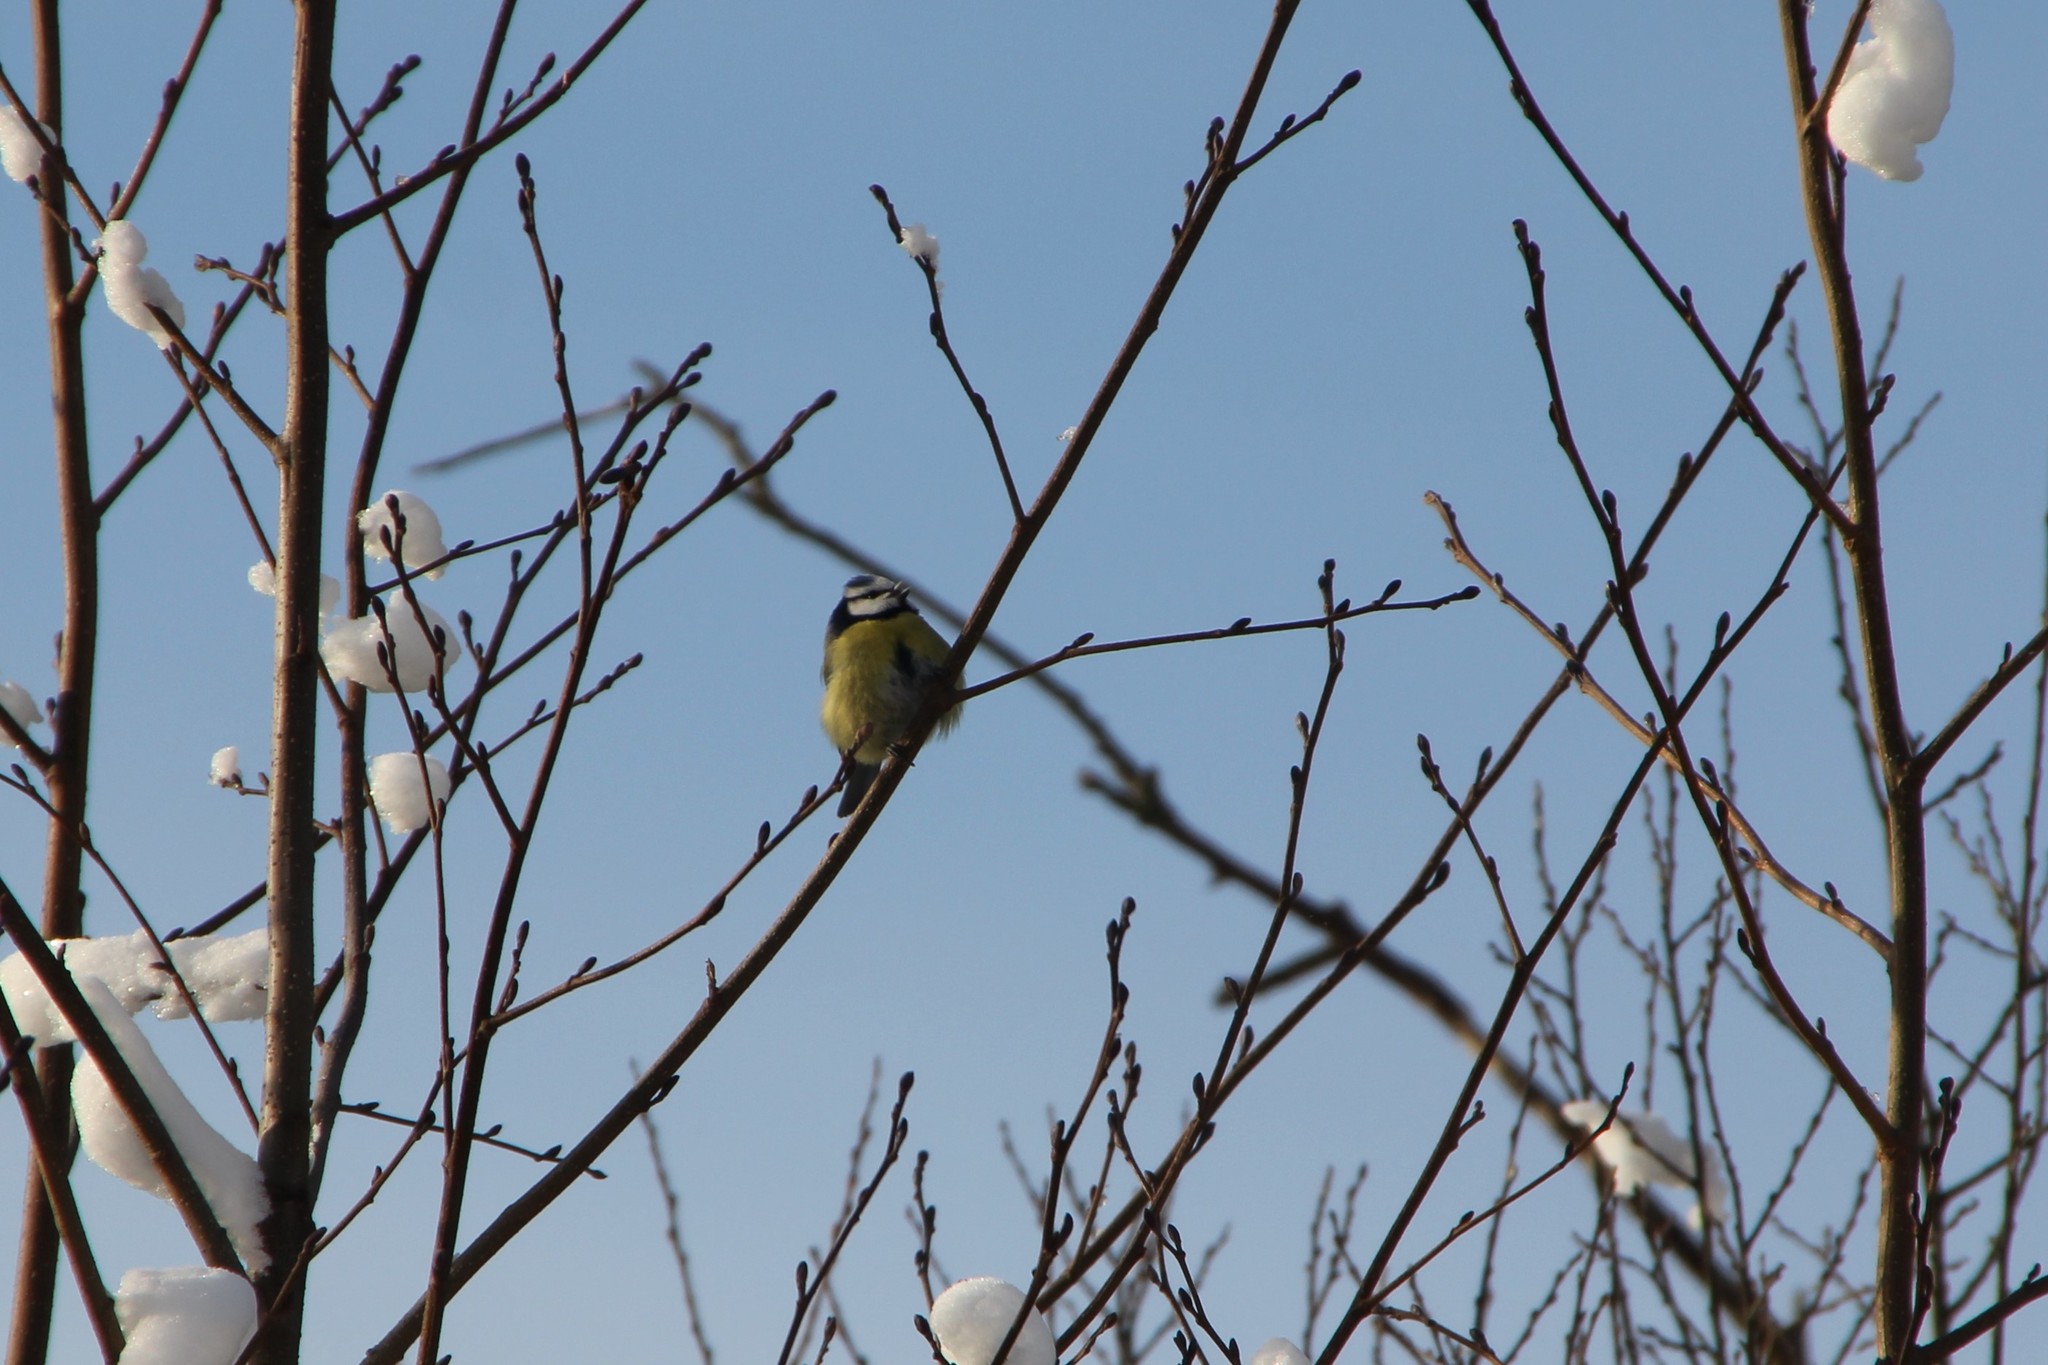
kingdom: Animalia
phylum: Chordata
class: Aves
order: Passeriformes
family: Paridae
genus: Cyanistes
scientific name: Cyanistes caeruleus
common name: Eurasian blue tit
